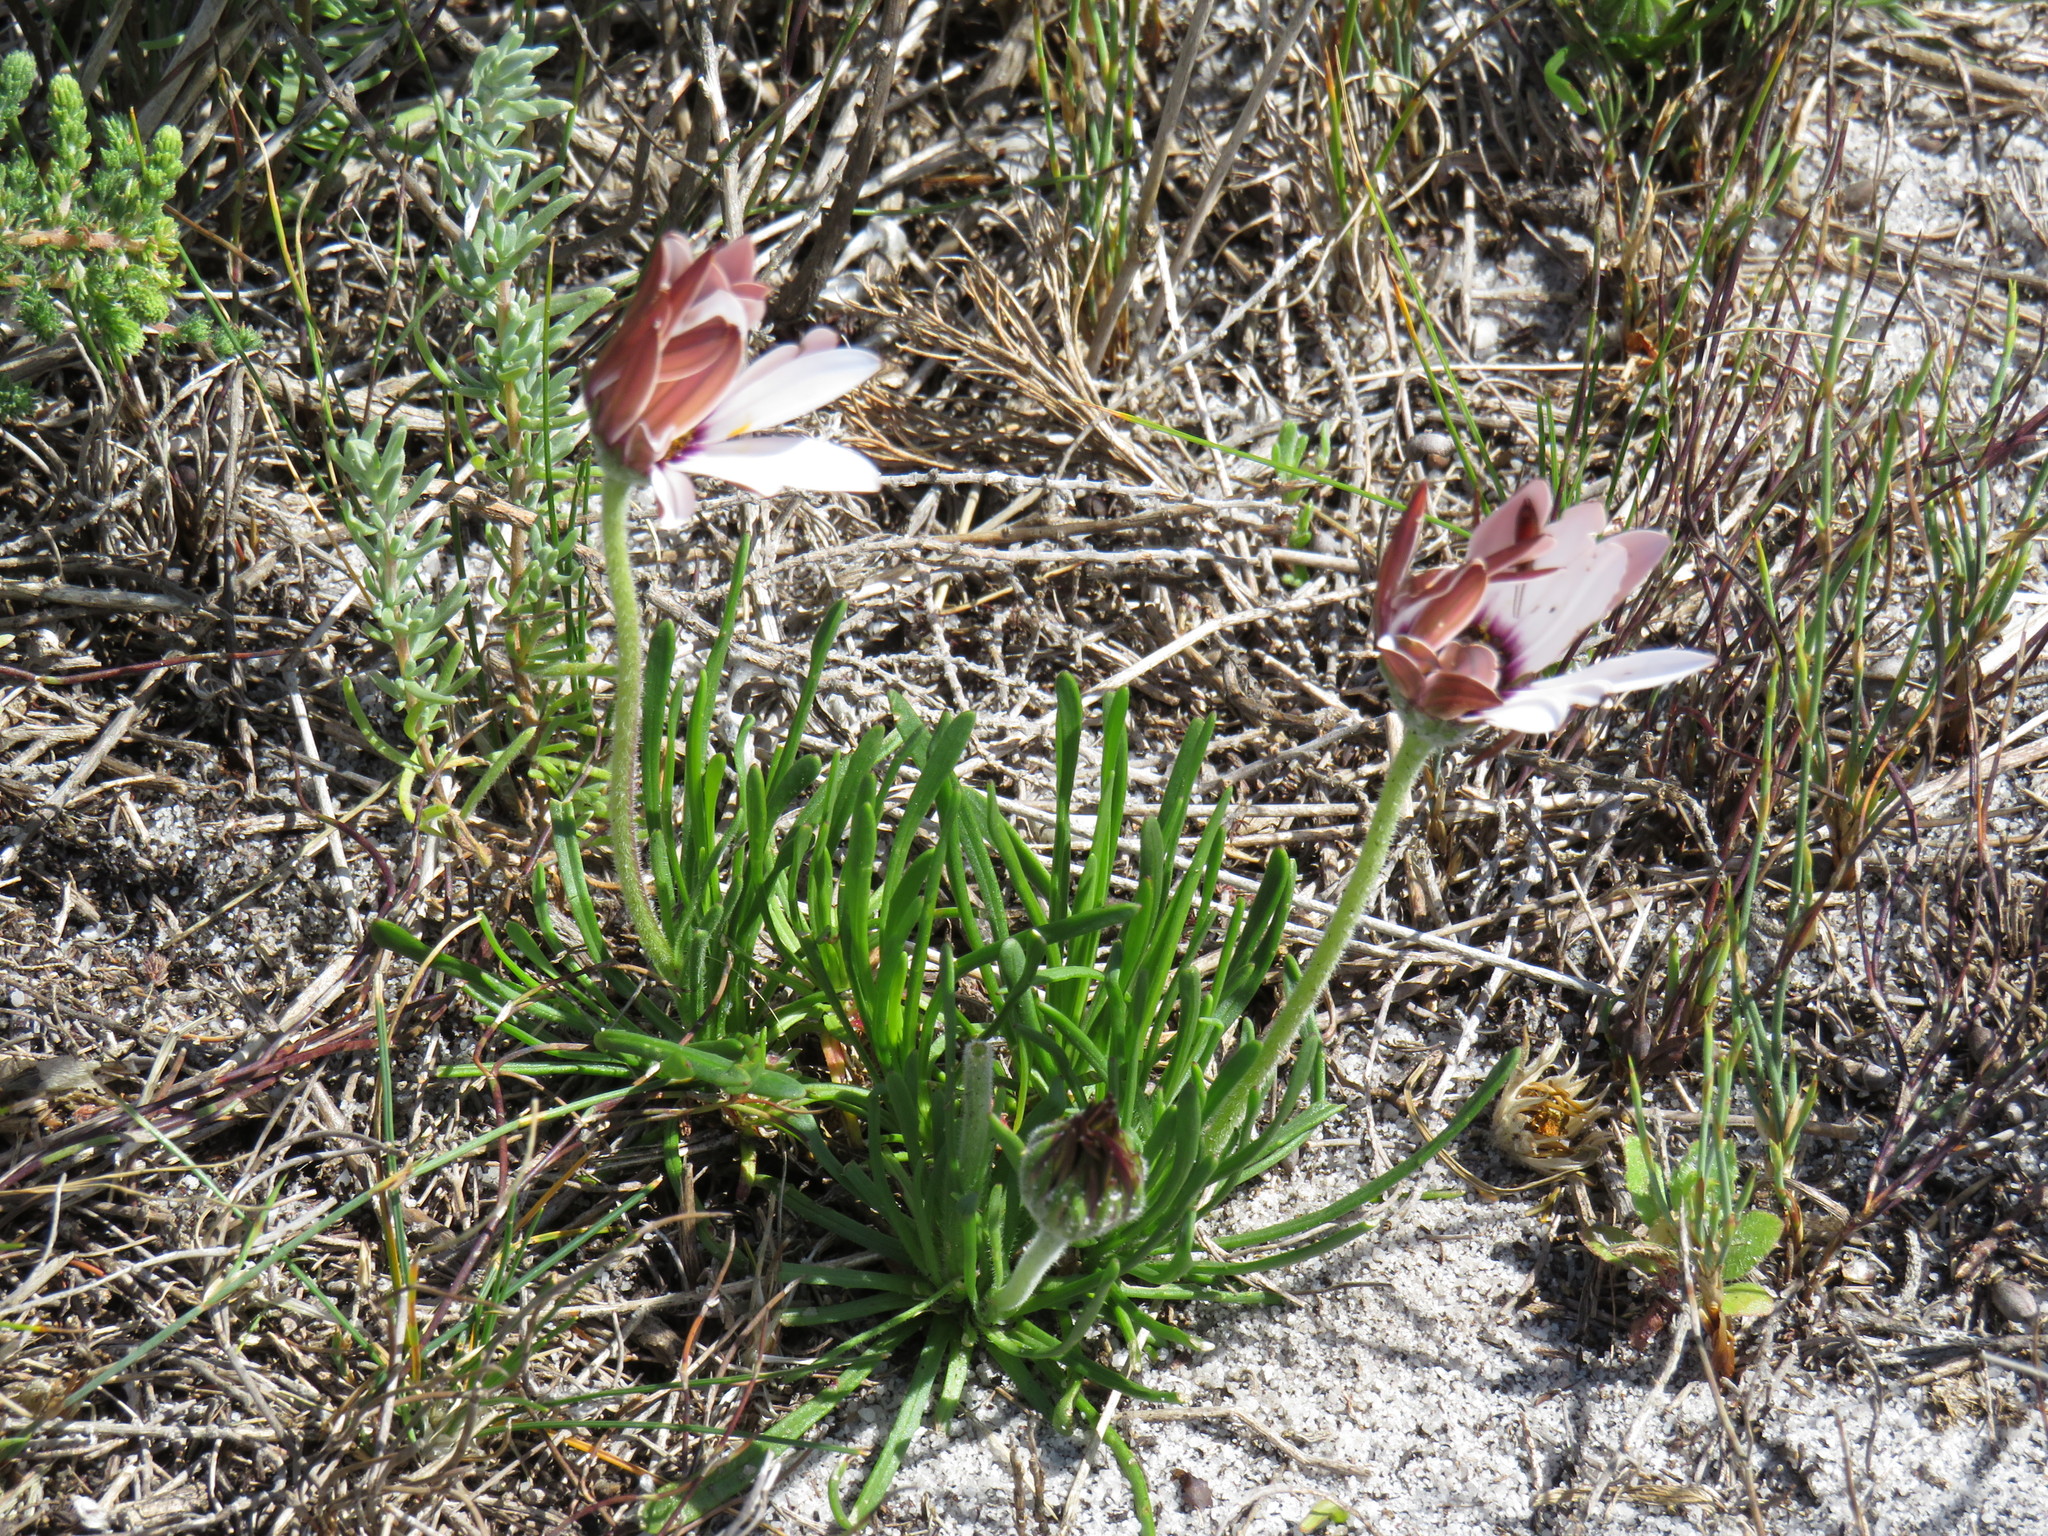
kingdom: Plantae
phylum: Tracheophyta
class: Magnoliopsida
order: Asterales
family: Asteraceae
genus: Dimorphotheca
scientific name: Dimorphotheca nudicaulis
